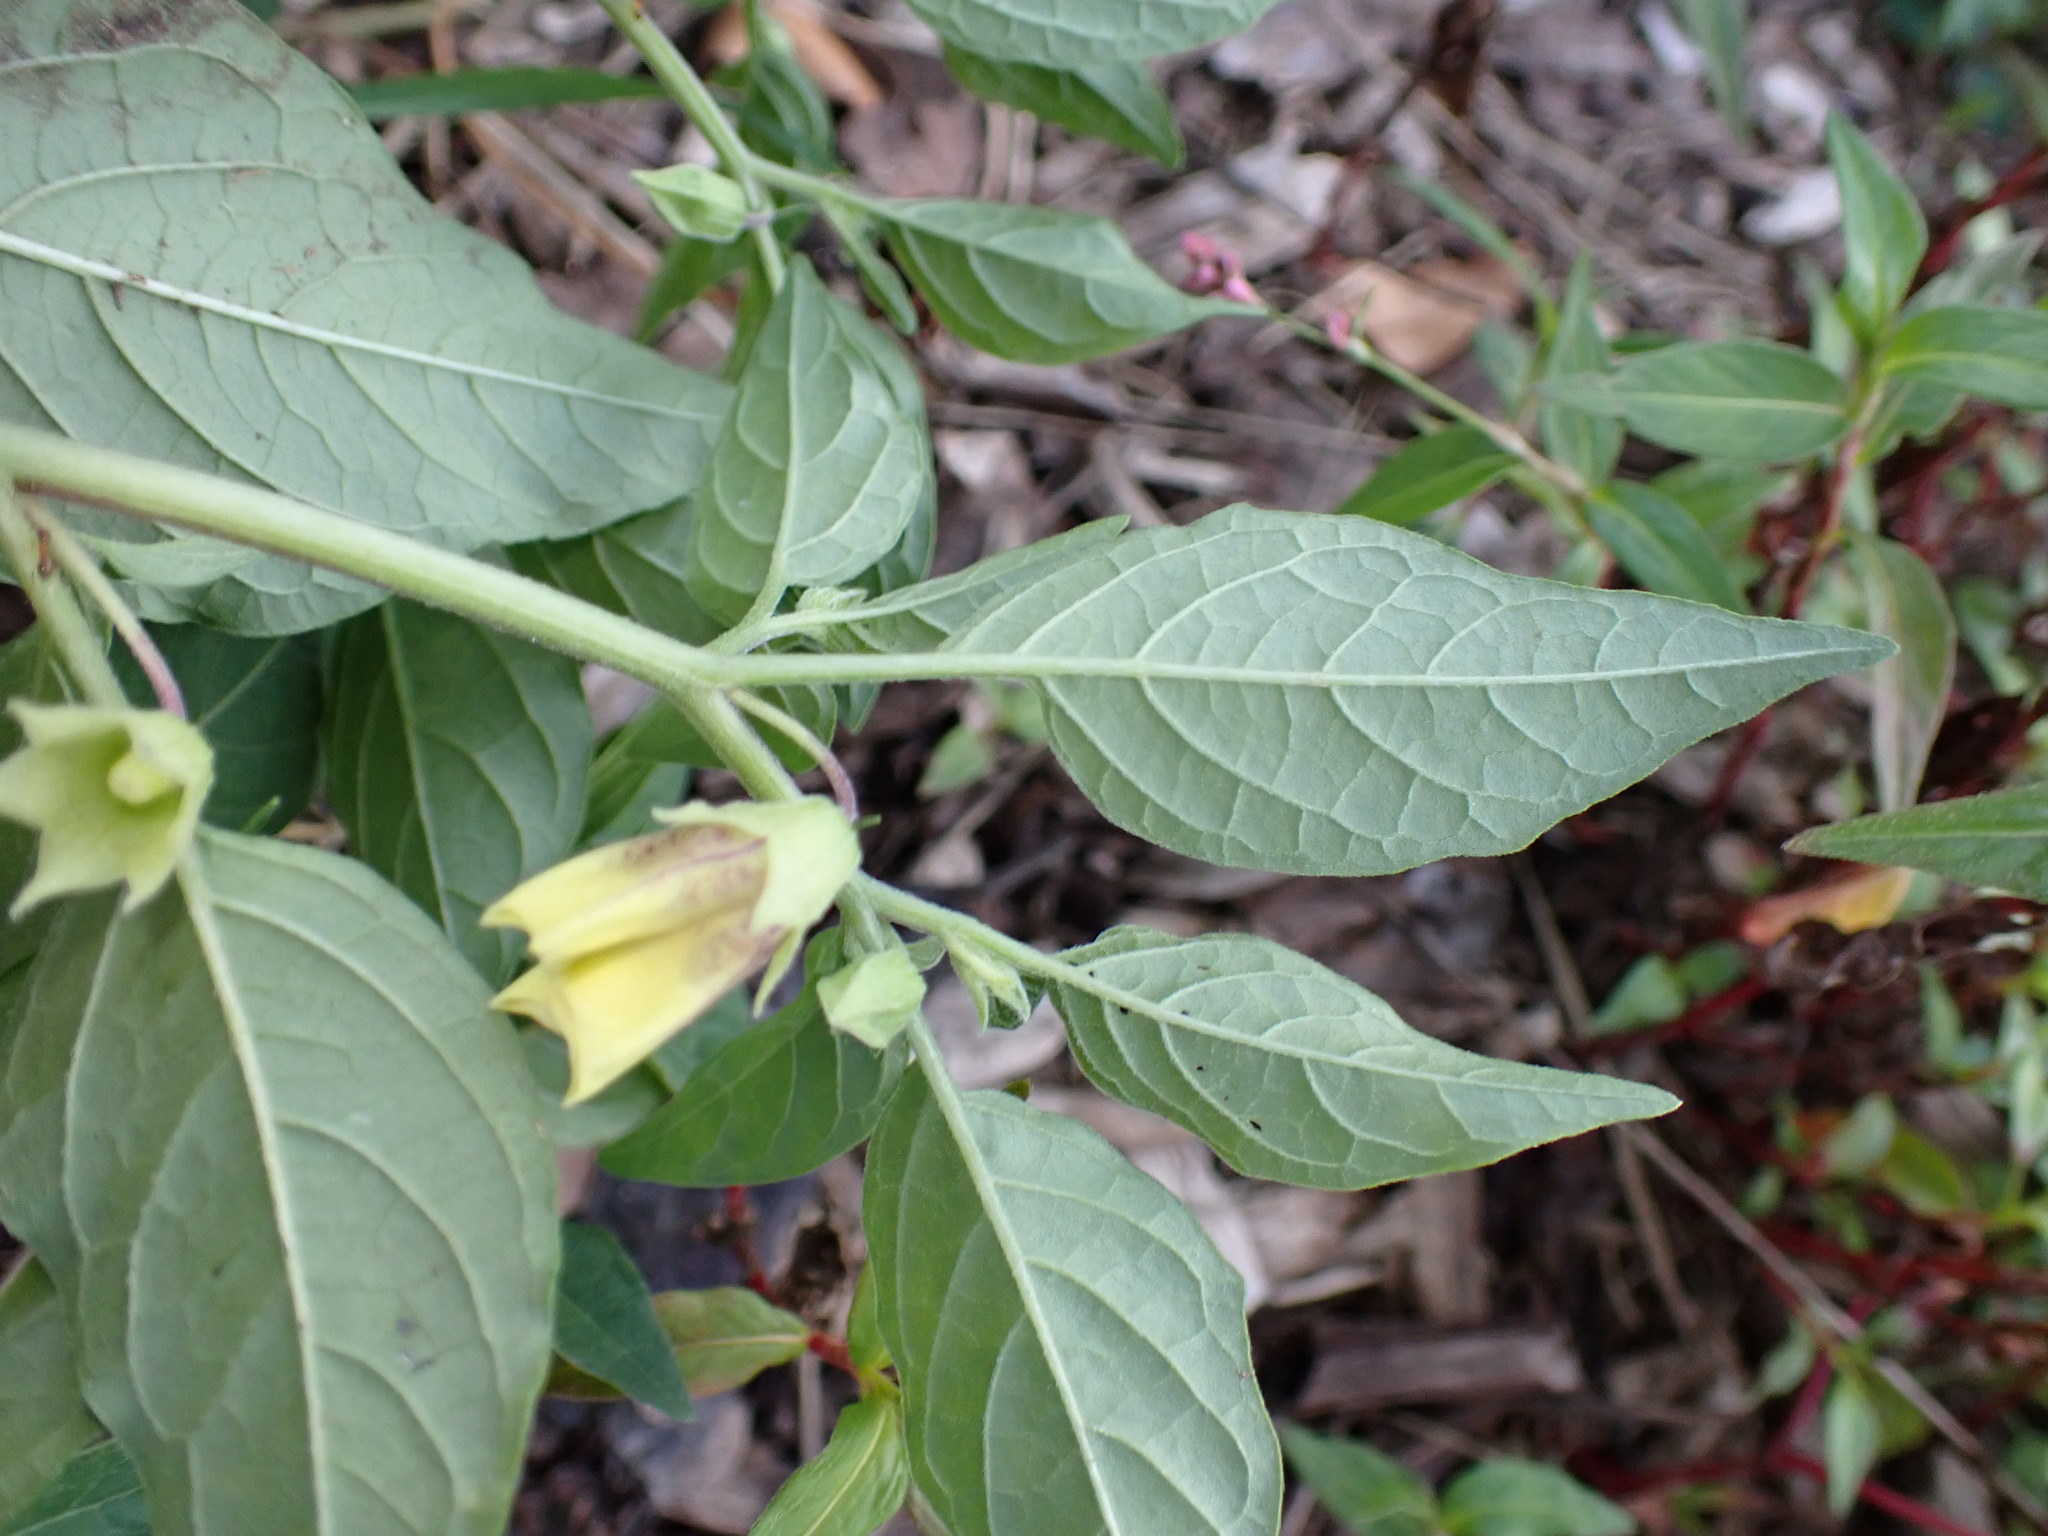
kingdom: Plantae
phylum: Tracheophyta
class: Magnoliopsida
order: Solanales
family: Solanaceae
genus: Physalis
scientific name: Physalis longifolia
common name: Common ground-cherry
